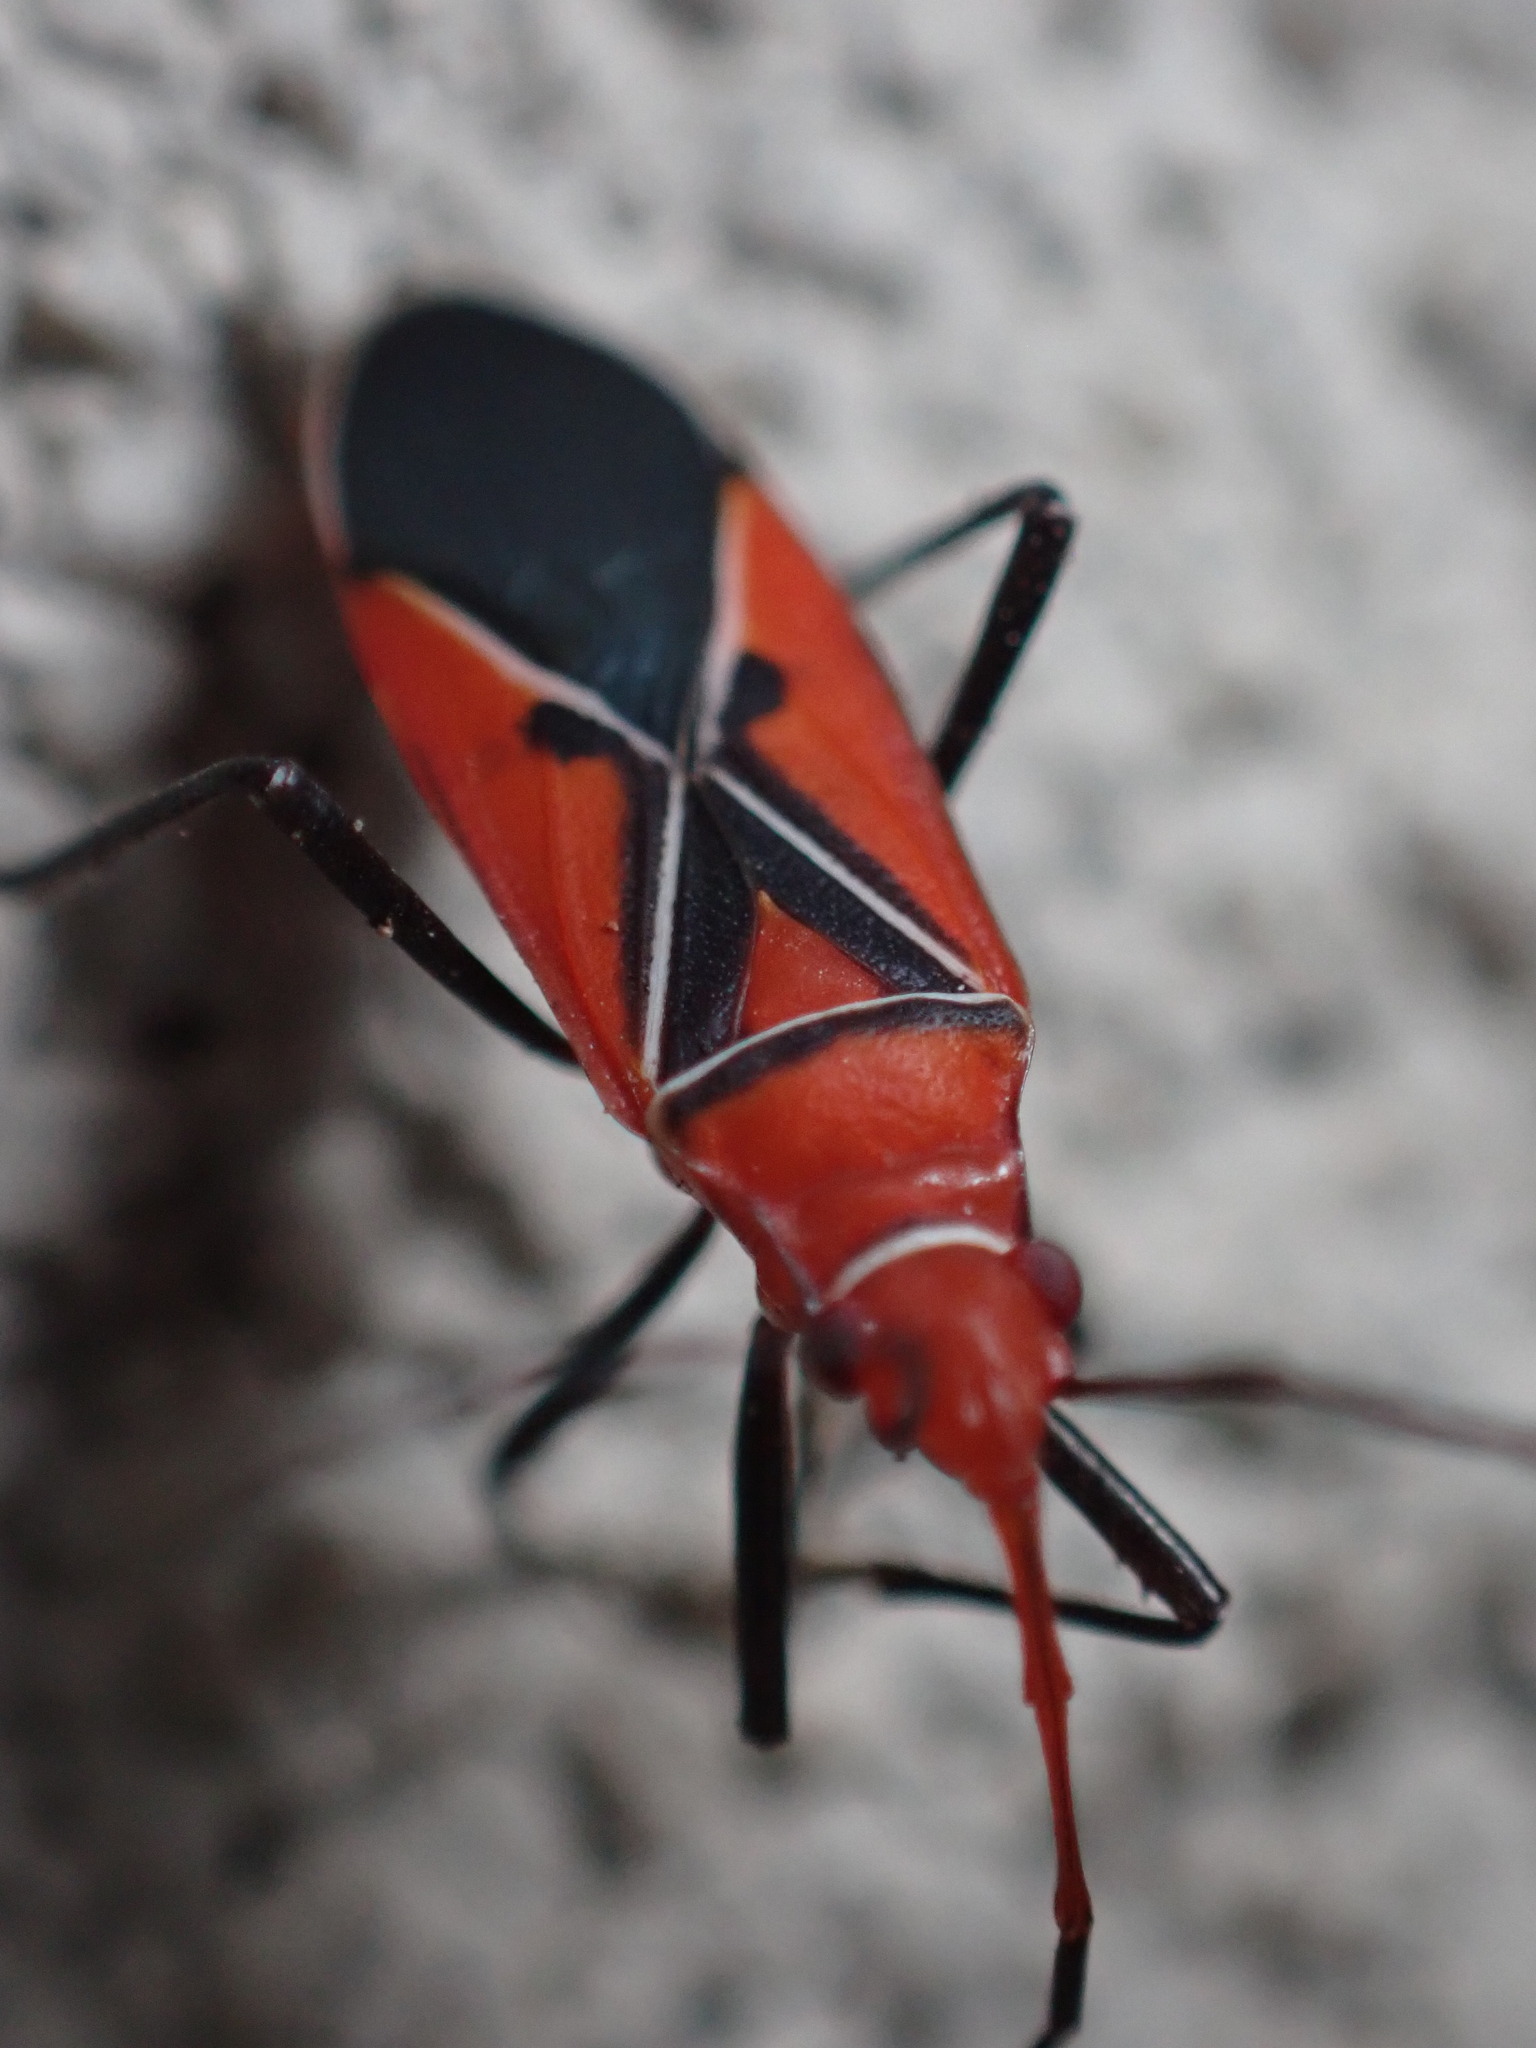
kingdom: Animalia
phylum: Arthropoda
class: Insecta
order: Hemiptera
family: Pyrrhocoridae
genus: Dysdercus
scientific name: Dysdercus andreae
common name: St. andrew's cotton stainer
